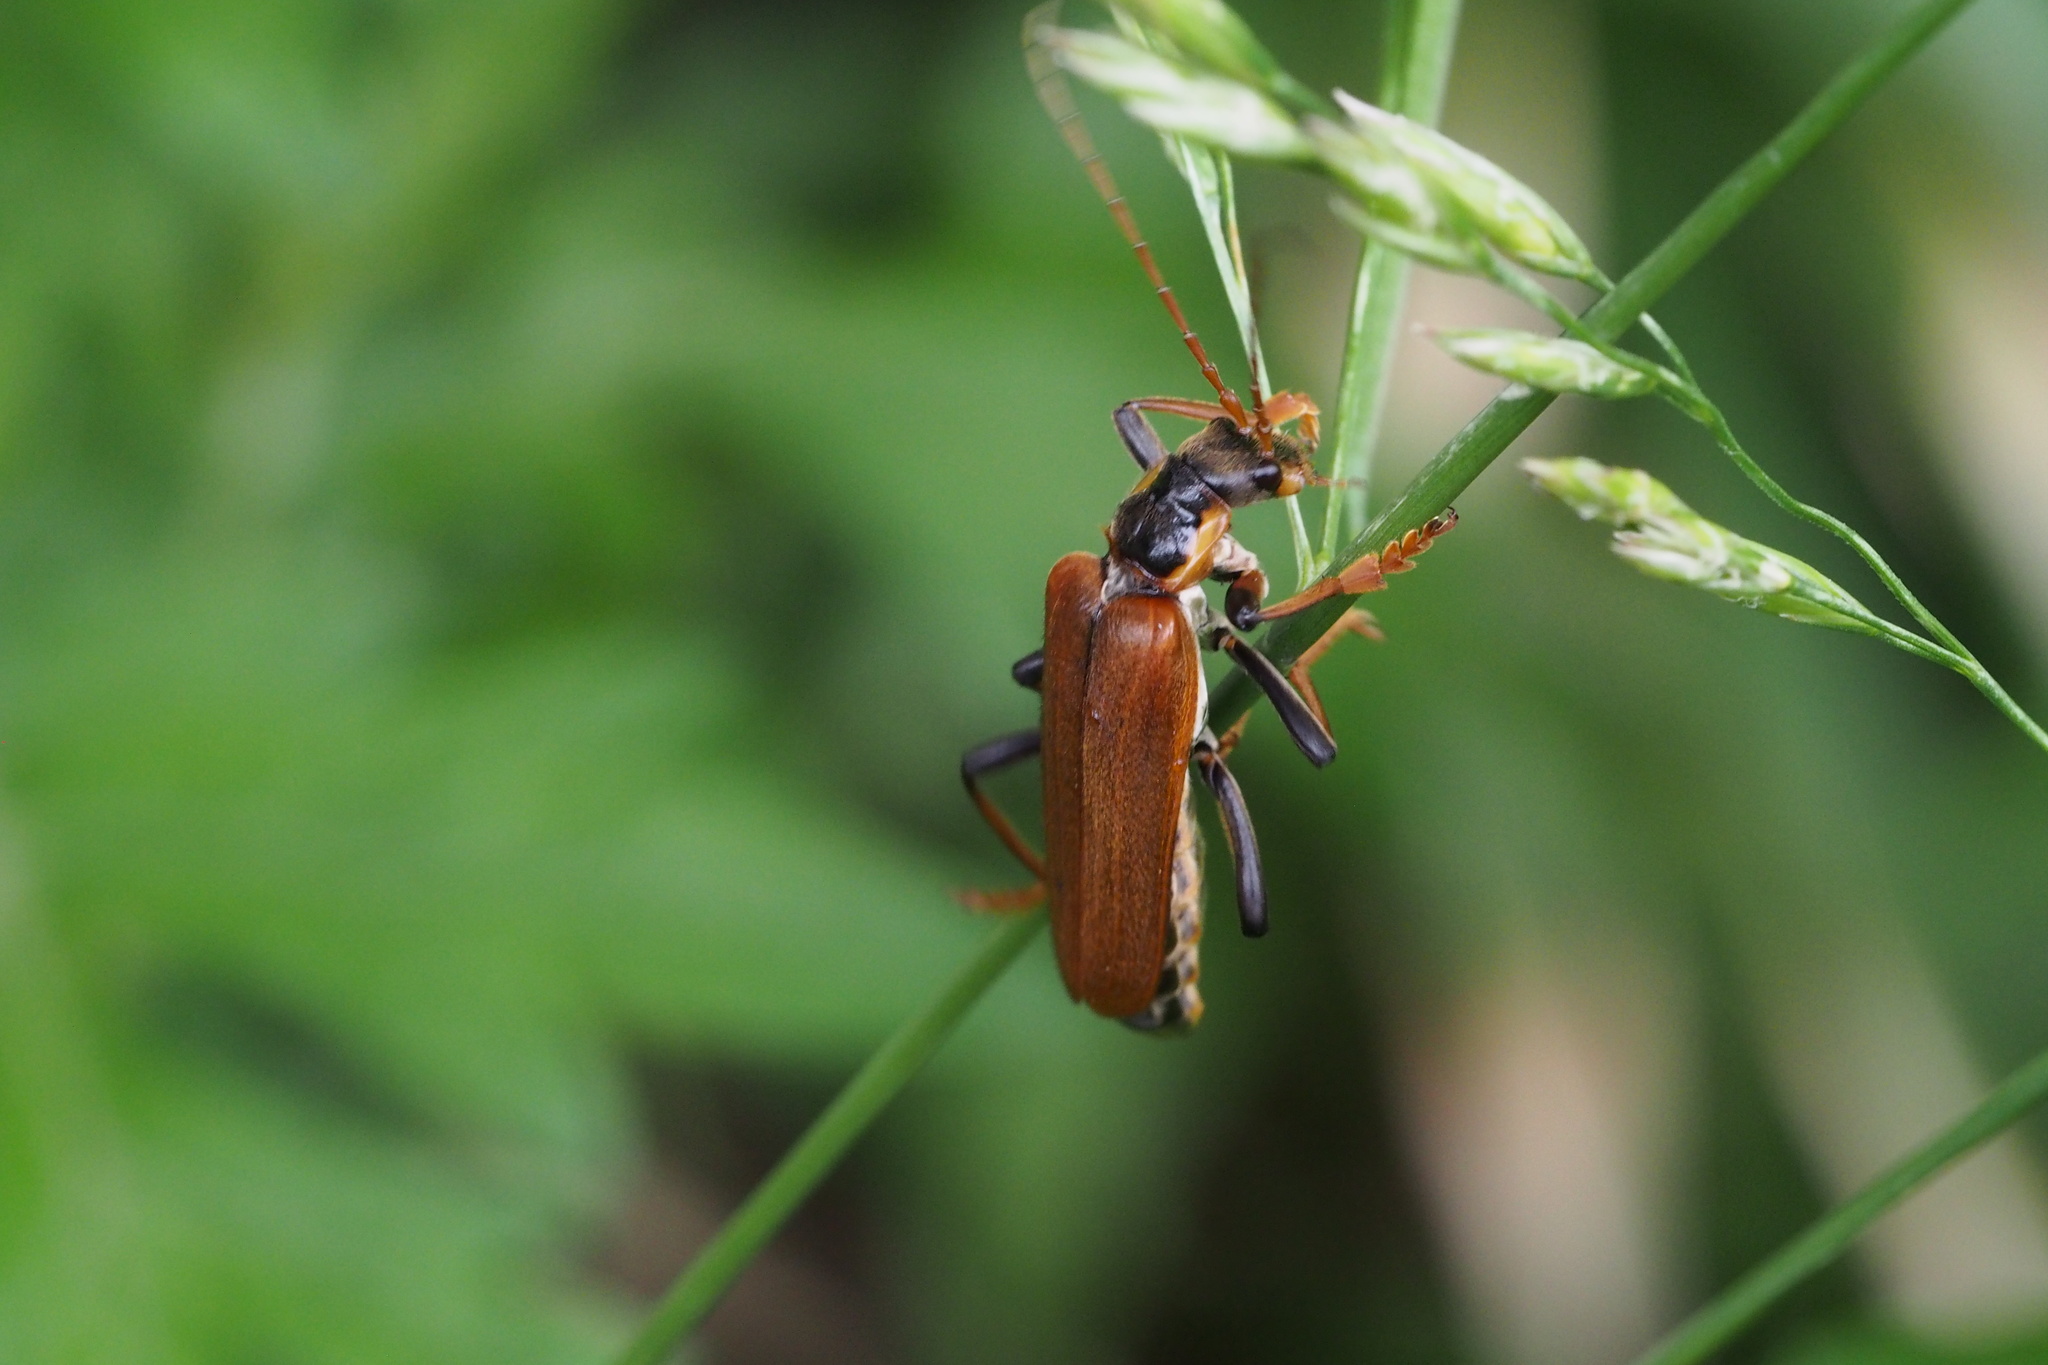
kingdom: Animalia
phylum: Arthropoda
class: Insecta
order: Coleoptera
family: Cantharidae
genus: Lycocerus
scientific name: Lycocerus suturellus
